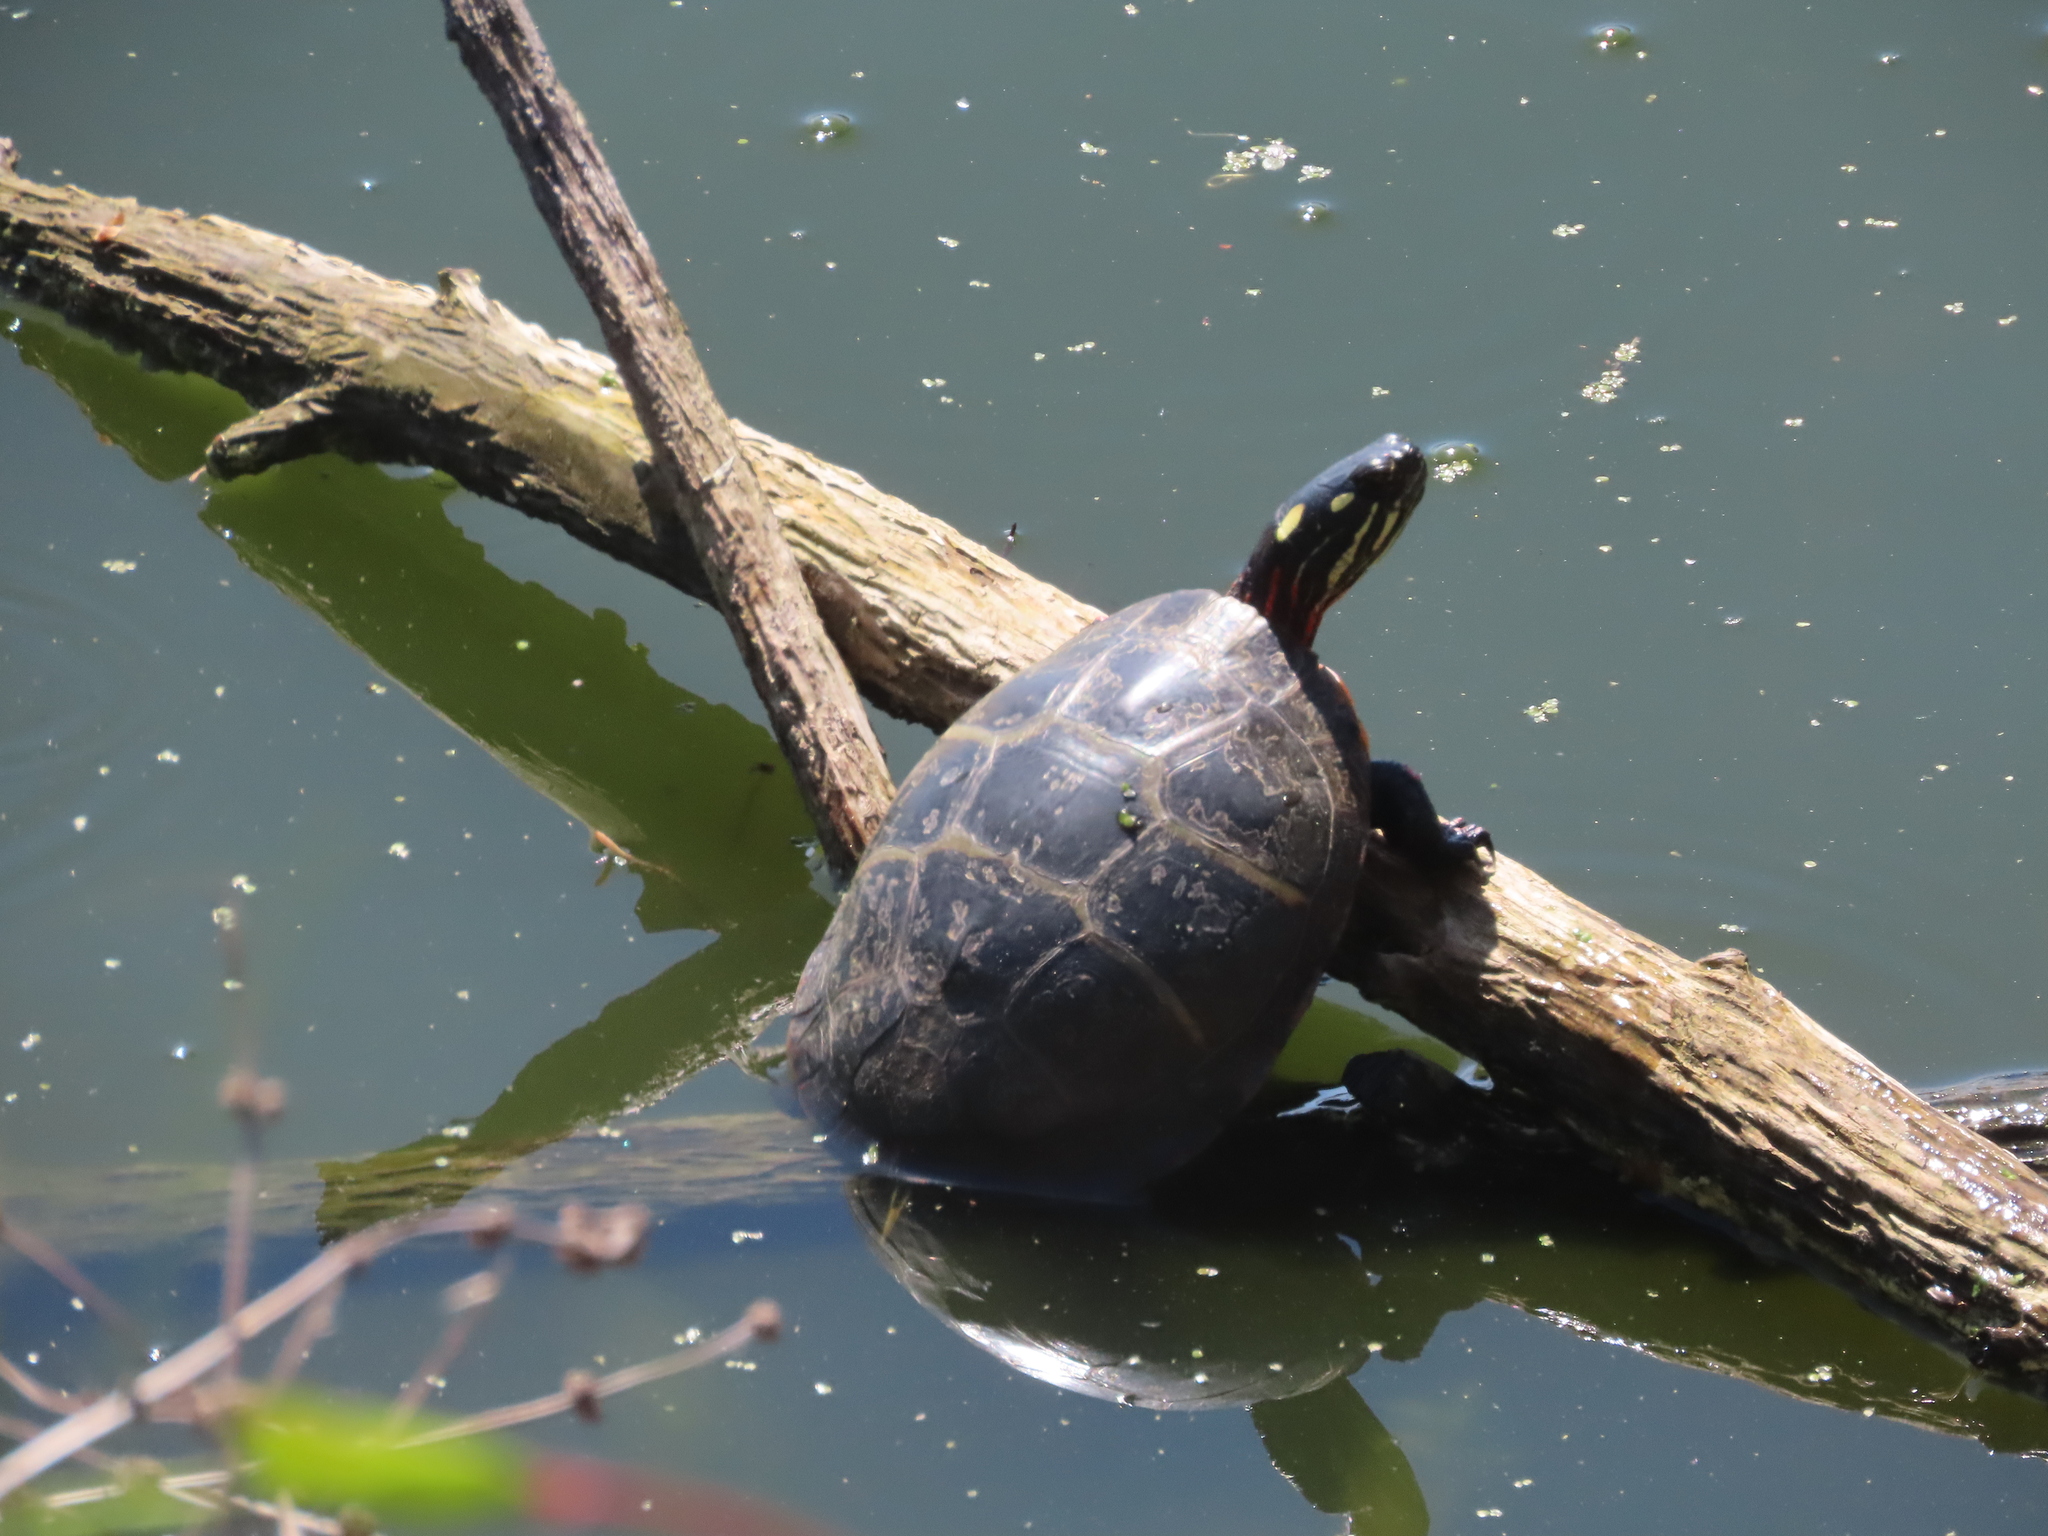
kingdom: Animalia
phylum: Chordata
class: Testudines
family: Emydidae
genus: Chrysemys
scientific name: Chrysemys picta
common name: Painted turtle
